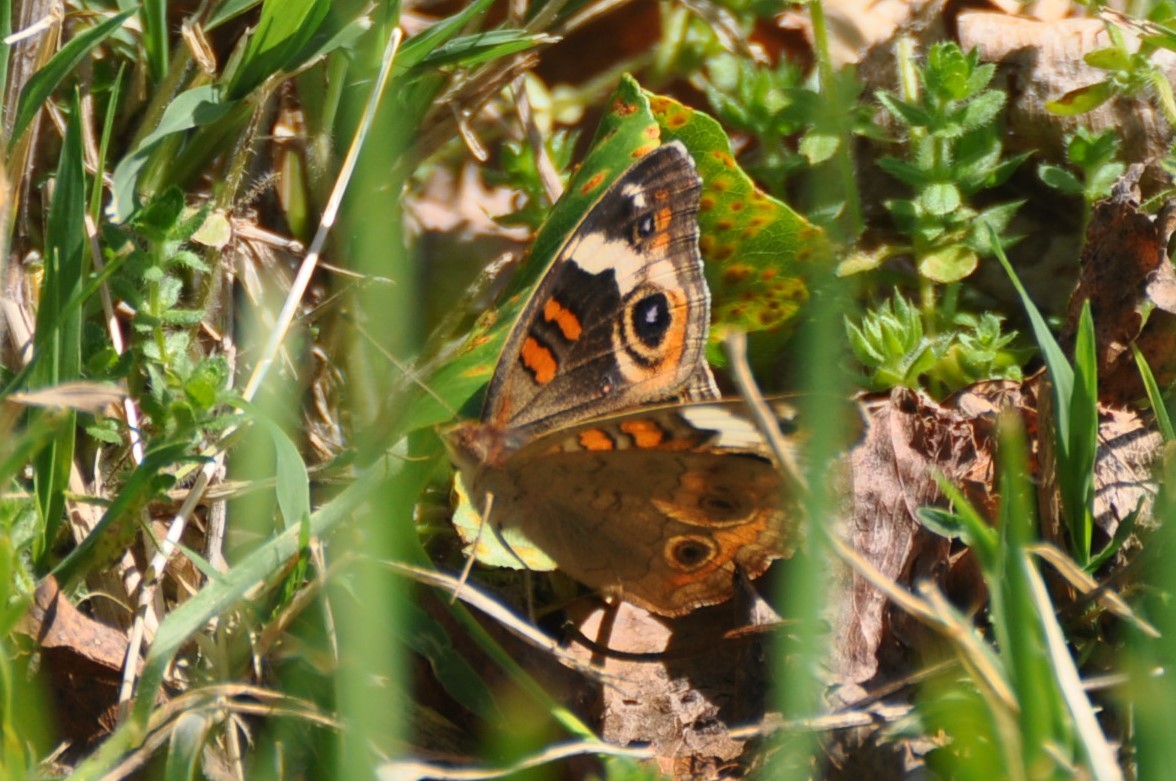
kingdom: Animalia
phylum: Arthropoda
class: Insecta
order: Lepidoptera
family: Nymphalidae
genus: Junonia
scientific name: Junonia coenia
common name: Common buckeye
